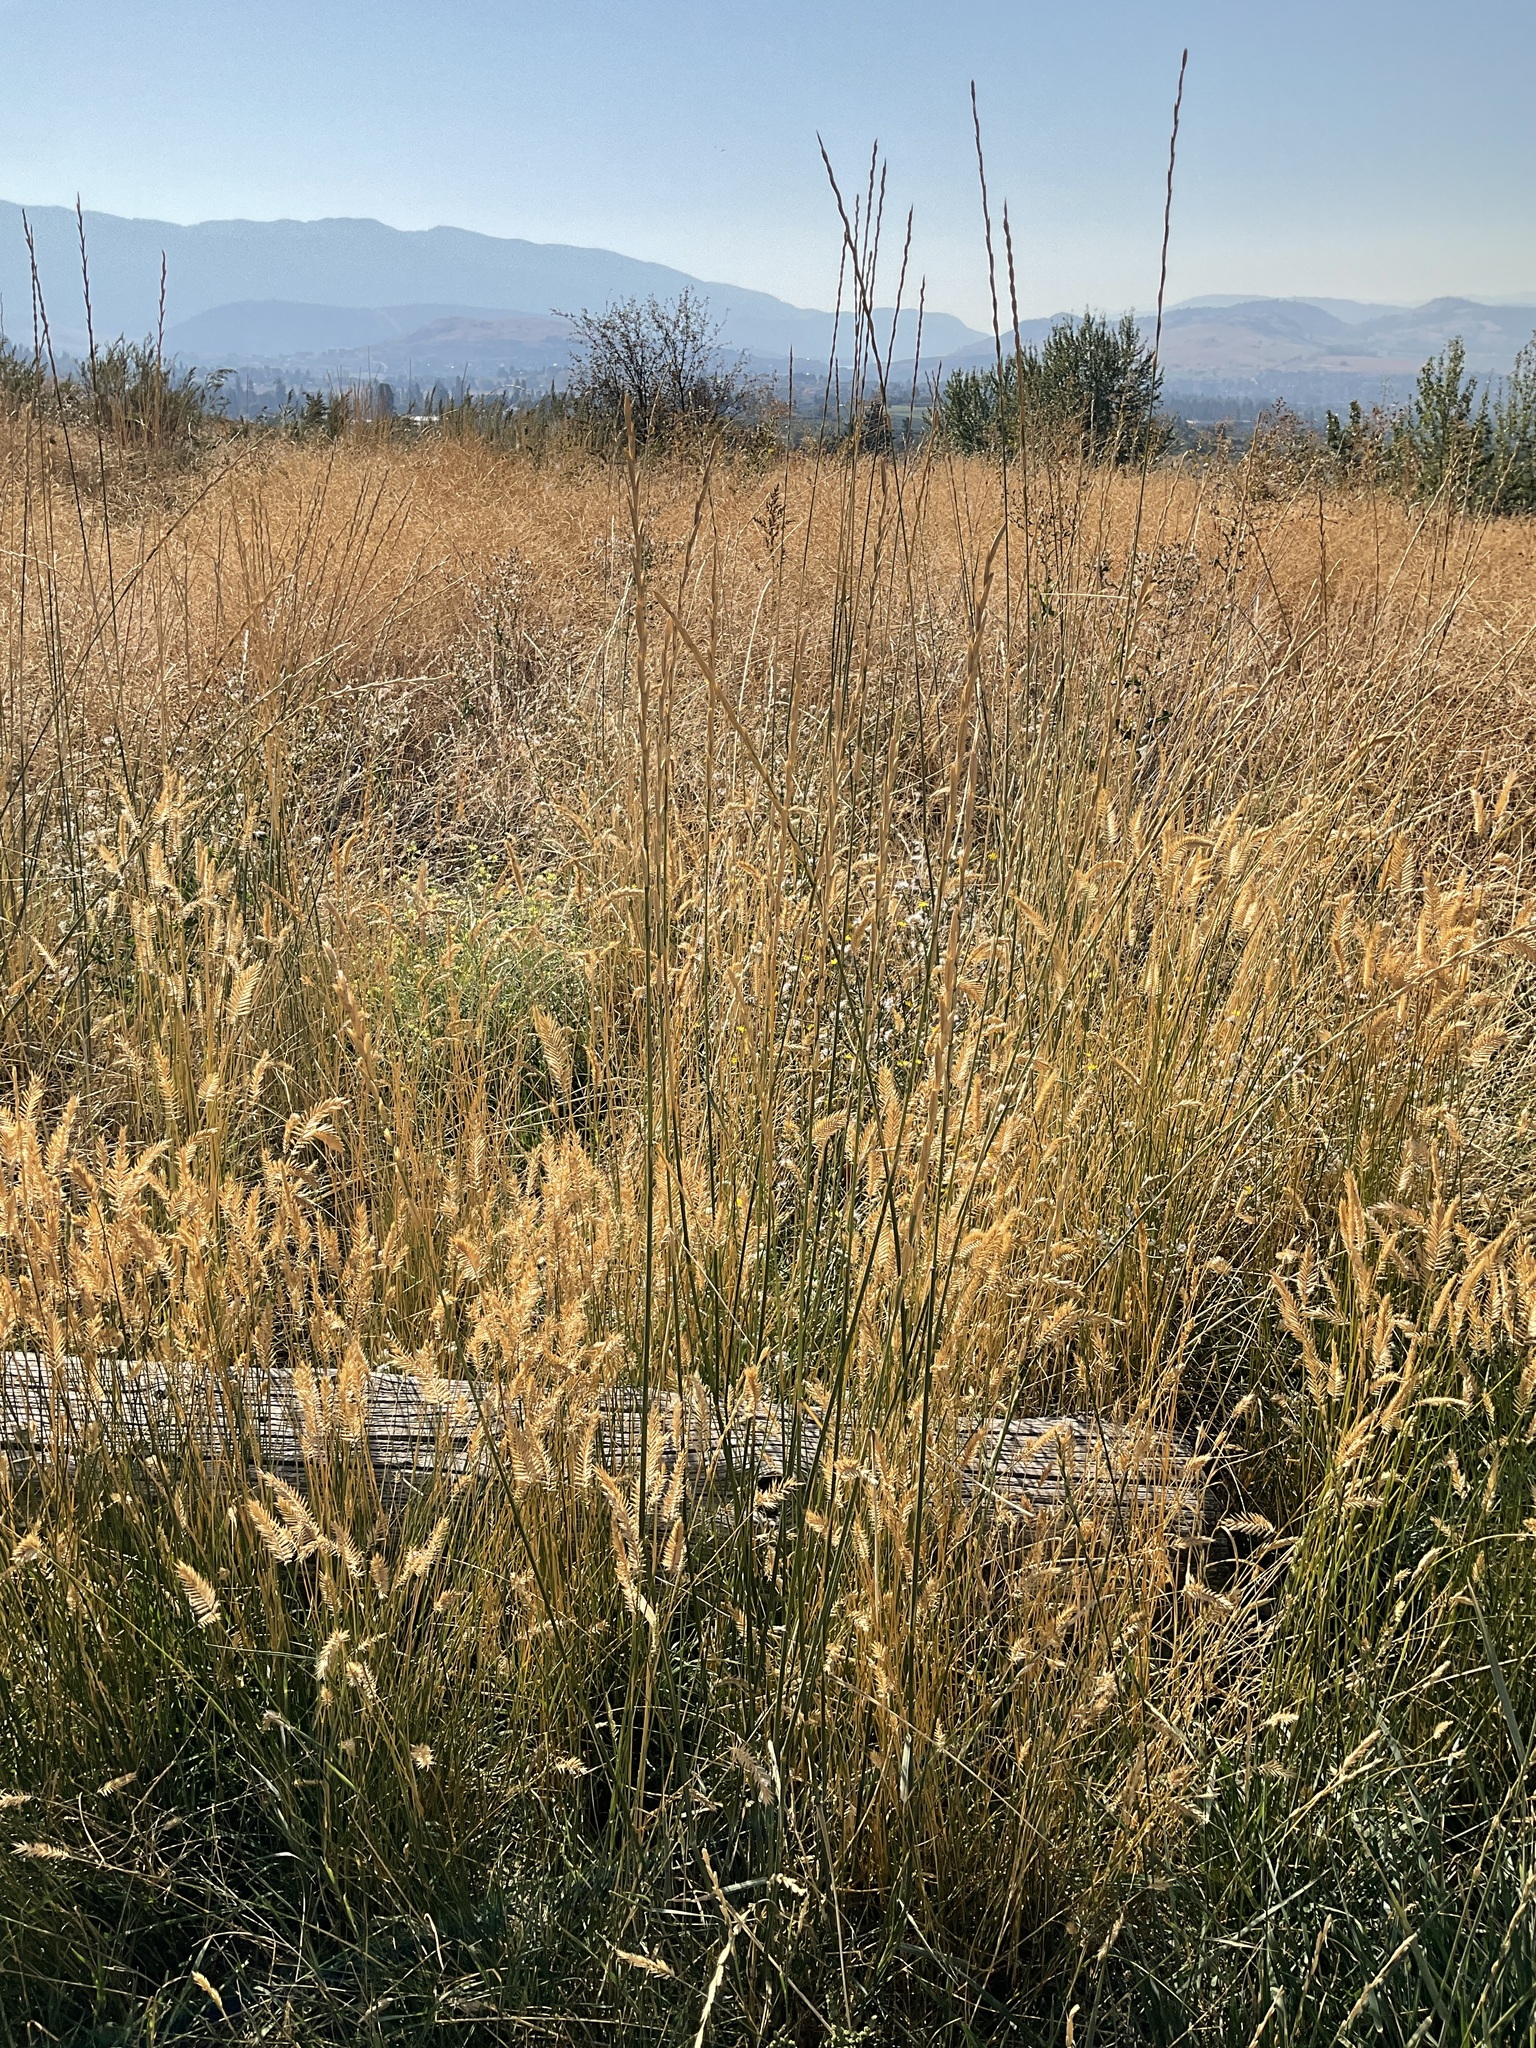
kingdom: Plantae
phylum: Tracheophyta
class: Liliopsida
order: Poales
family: Poaceae
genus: Thinopyrum
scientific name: Thinopyrum obtusiflorum
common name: Eurasian quackgrass
